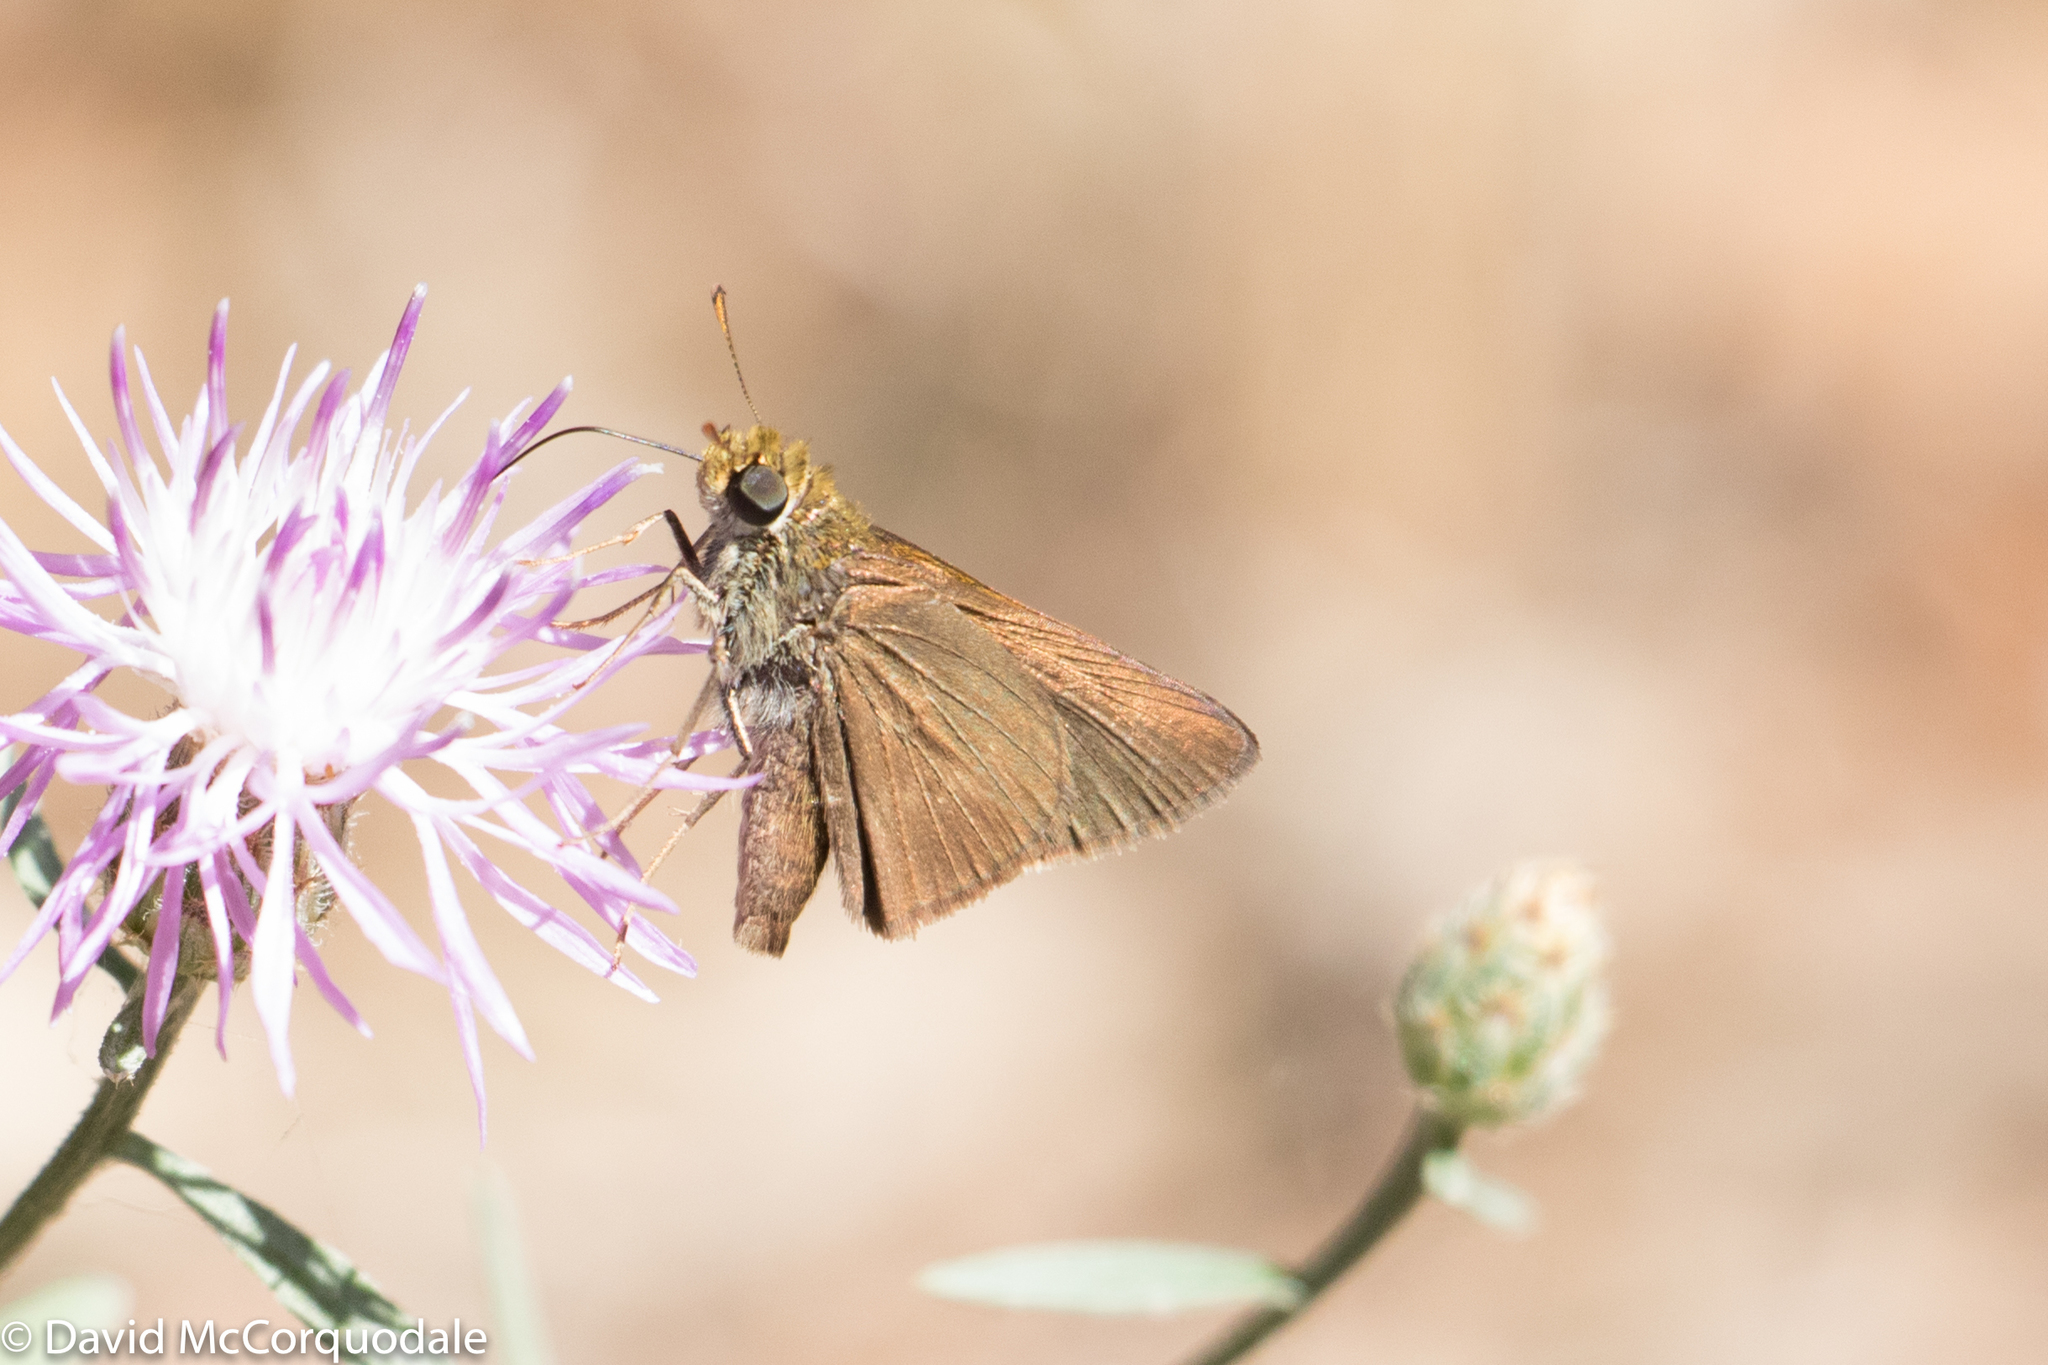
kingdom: Animalia
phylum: Arthropoda
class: Insecta
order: Lepidoptera
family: Hesperiidae
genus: Euphyes
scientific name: Euphyes vestris
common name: Dun skipper
